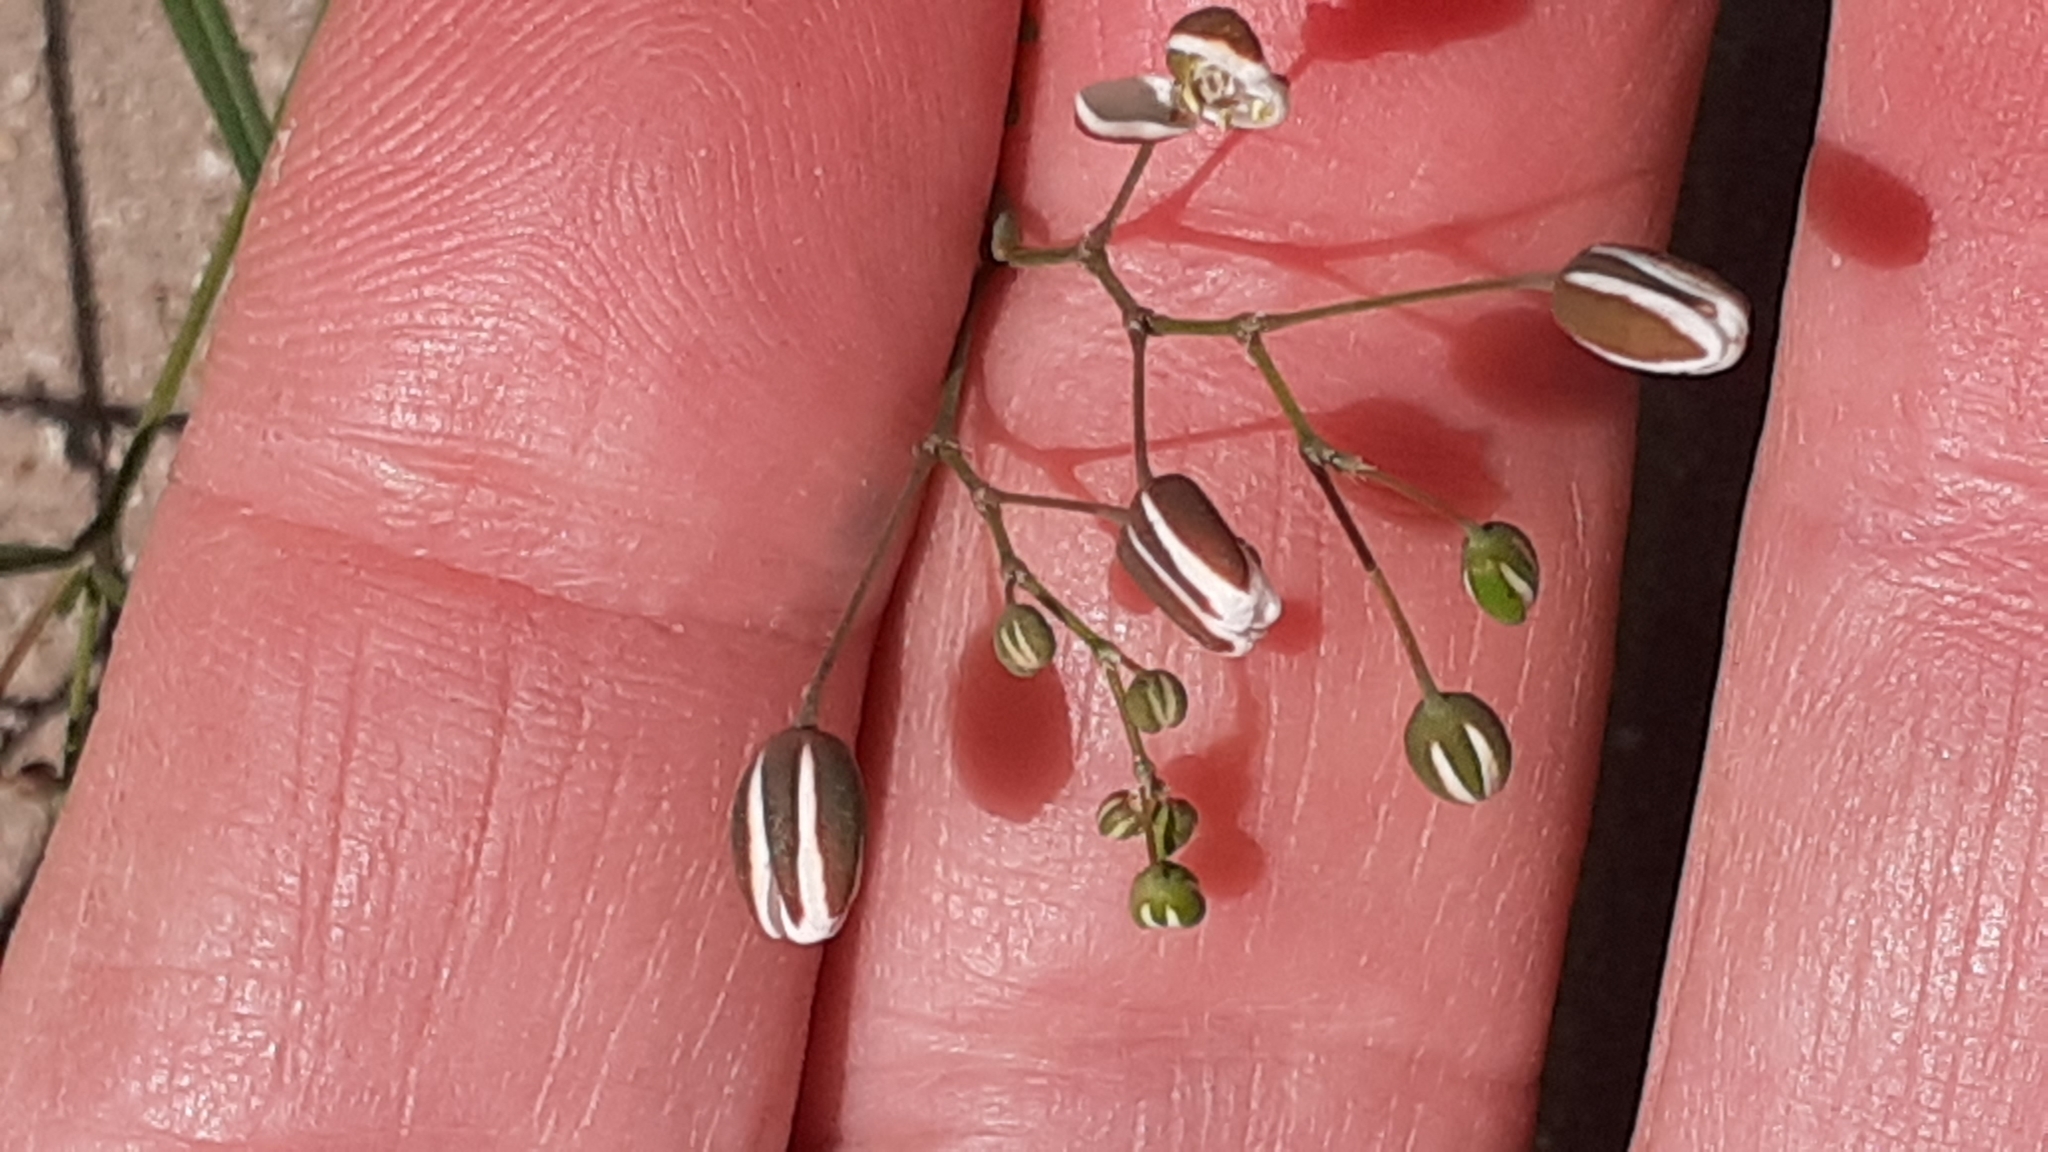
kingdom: Plantae
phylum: Tracheophyta
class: Magnoliopsida
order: Caryophyllales
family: Molluginaceae
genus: Pharnaceum
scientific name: Pharnaceum lineare
